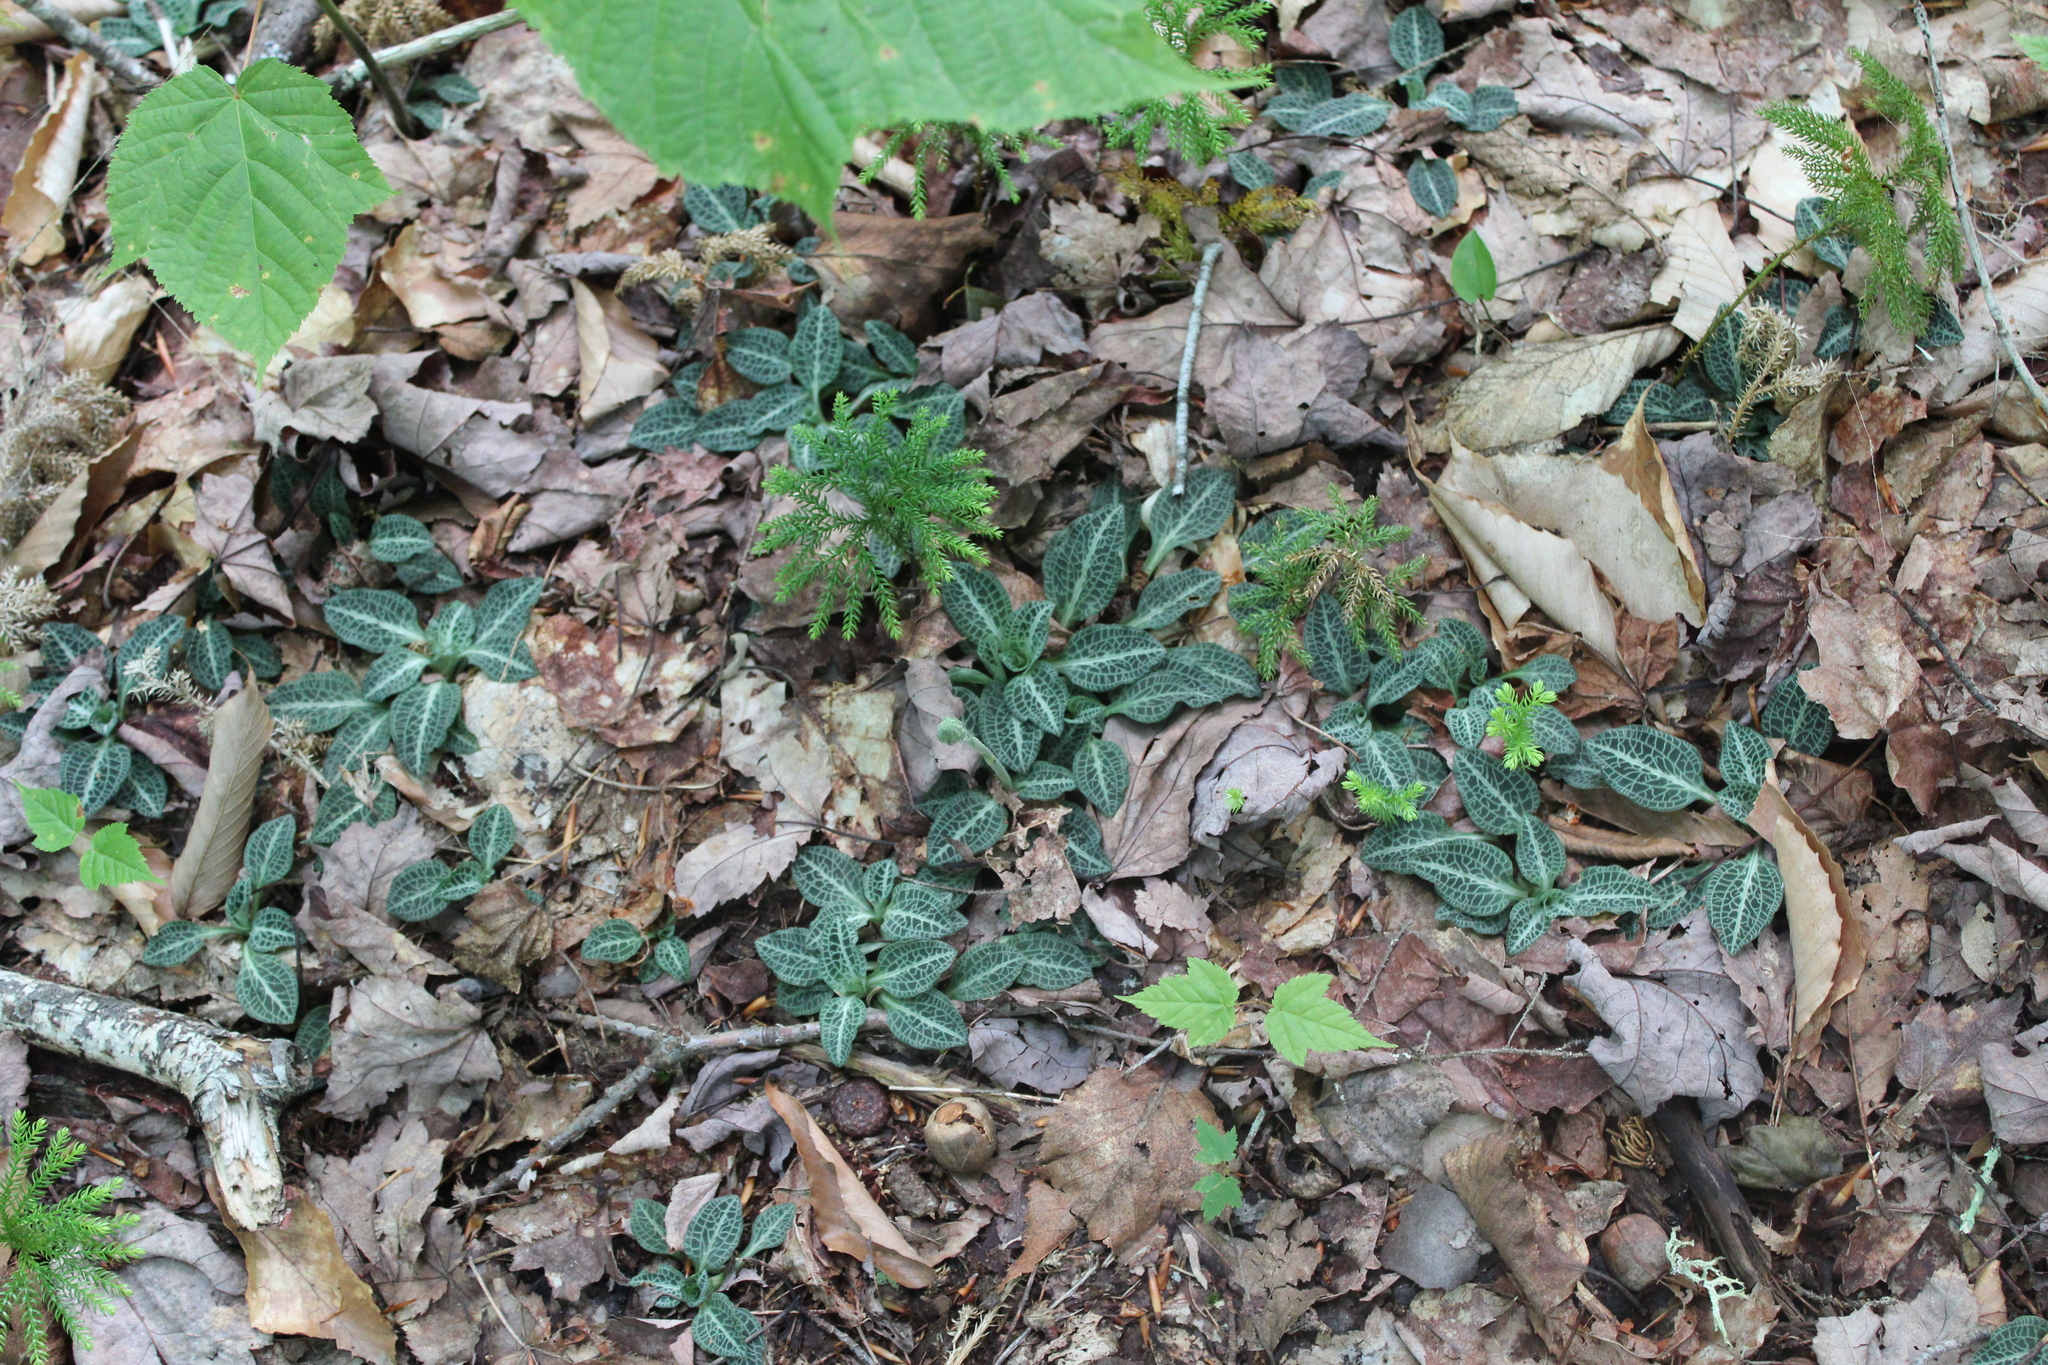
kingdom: Plantae
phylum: Tracheophyta
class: Liliopsida
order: Asparagales
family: Orchidaceae
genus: Goodyera
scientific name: Goodyera pubescens
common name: Downy rattlesnake-plantain
